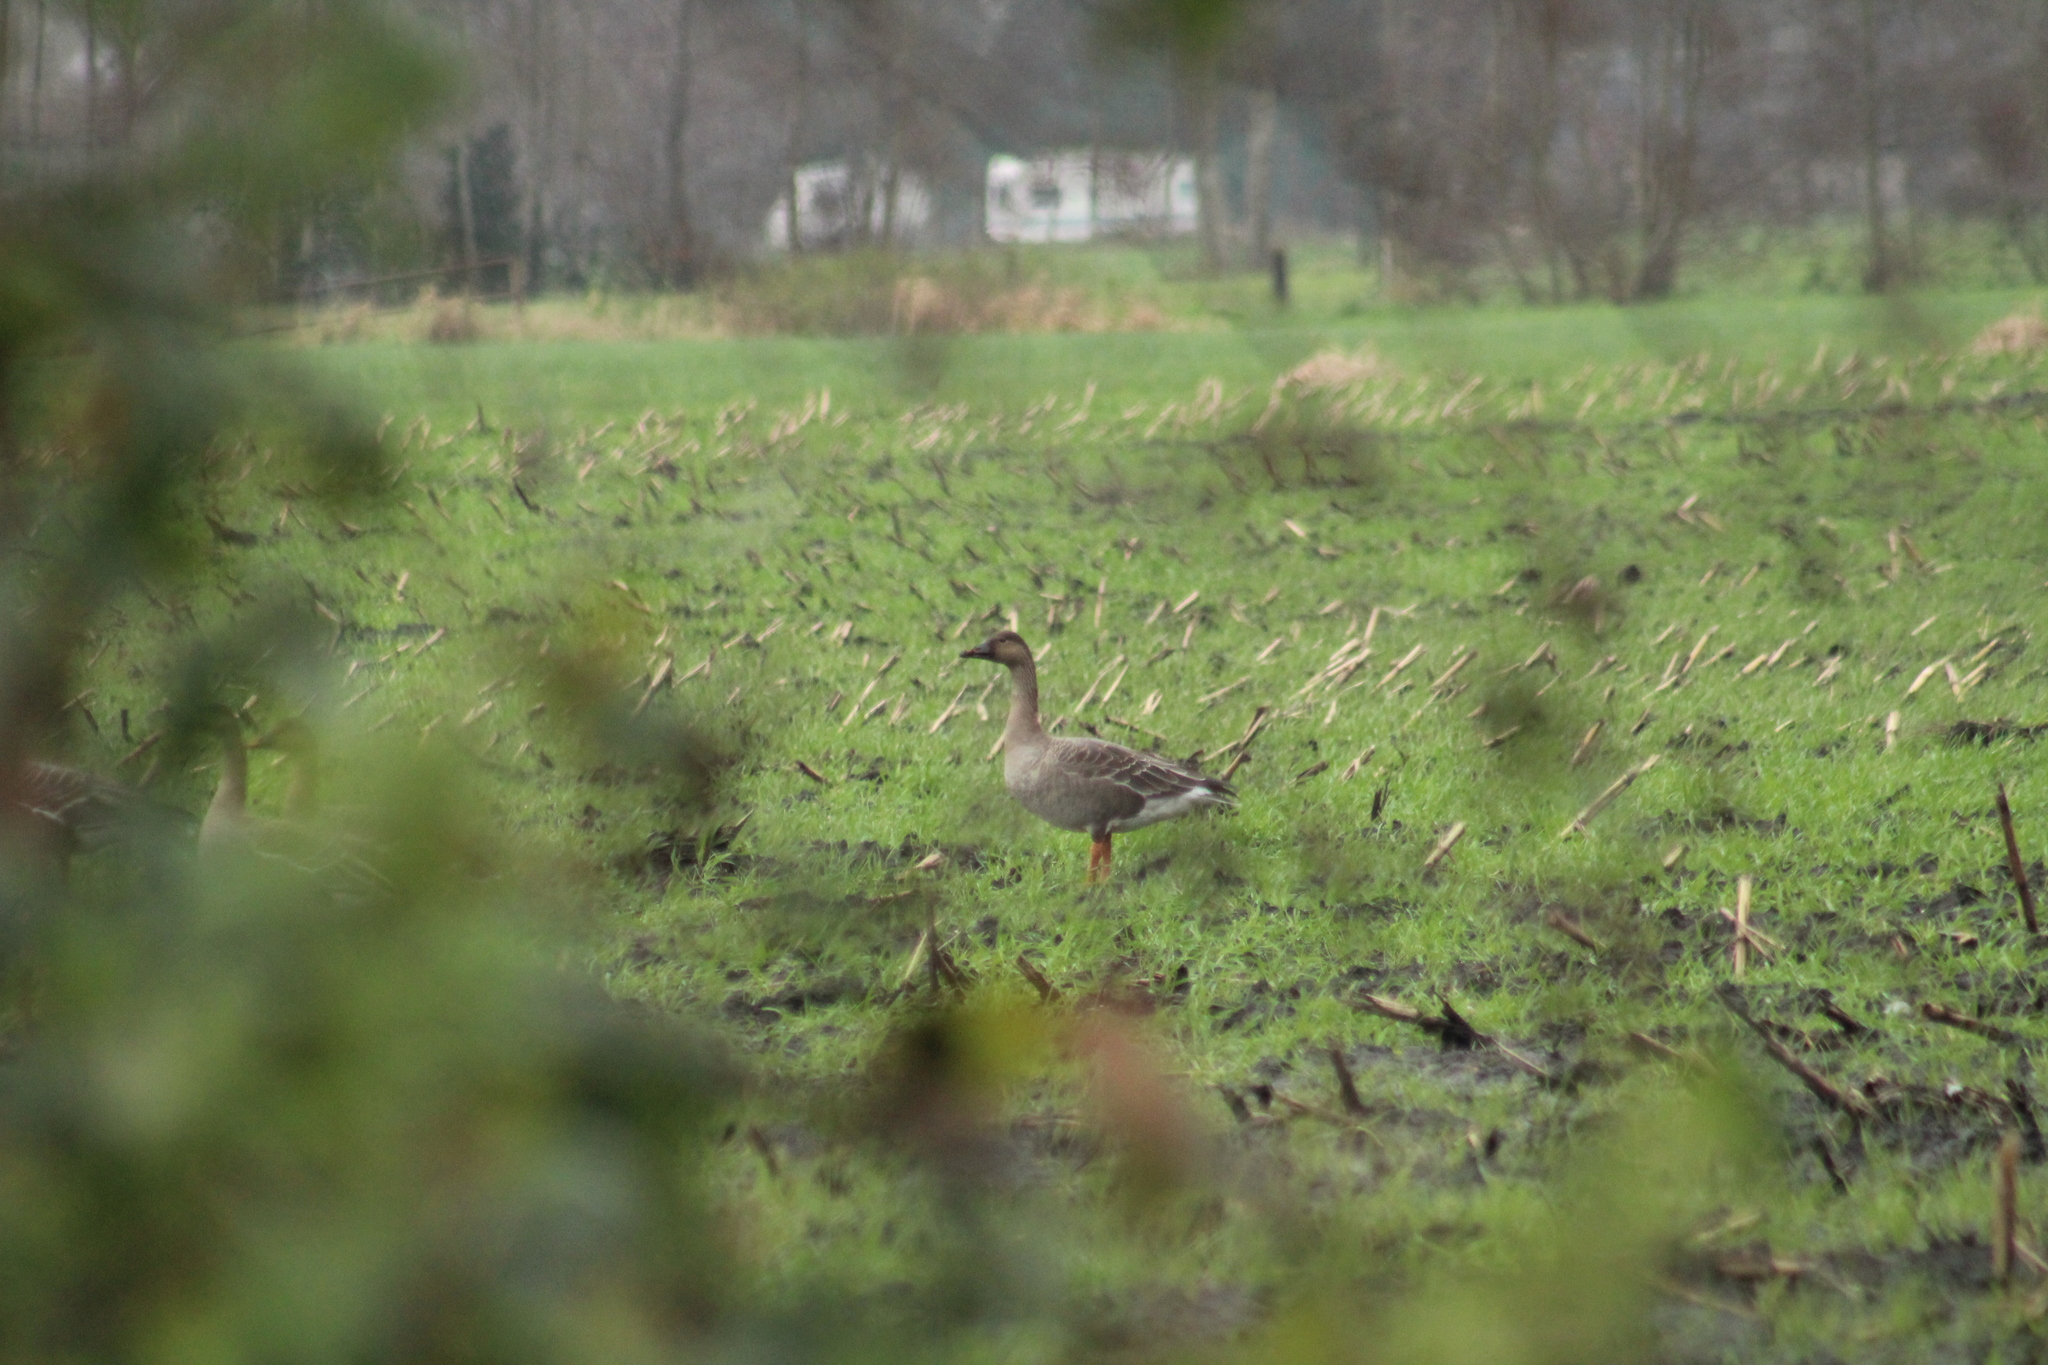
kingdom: Animalia
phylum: Chordata
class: Aves
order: Anseriformes
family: Anatidae
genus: Anser
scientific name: Anser serrirostris
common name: Tundra bean goose
